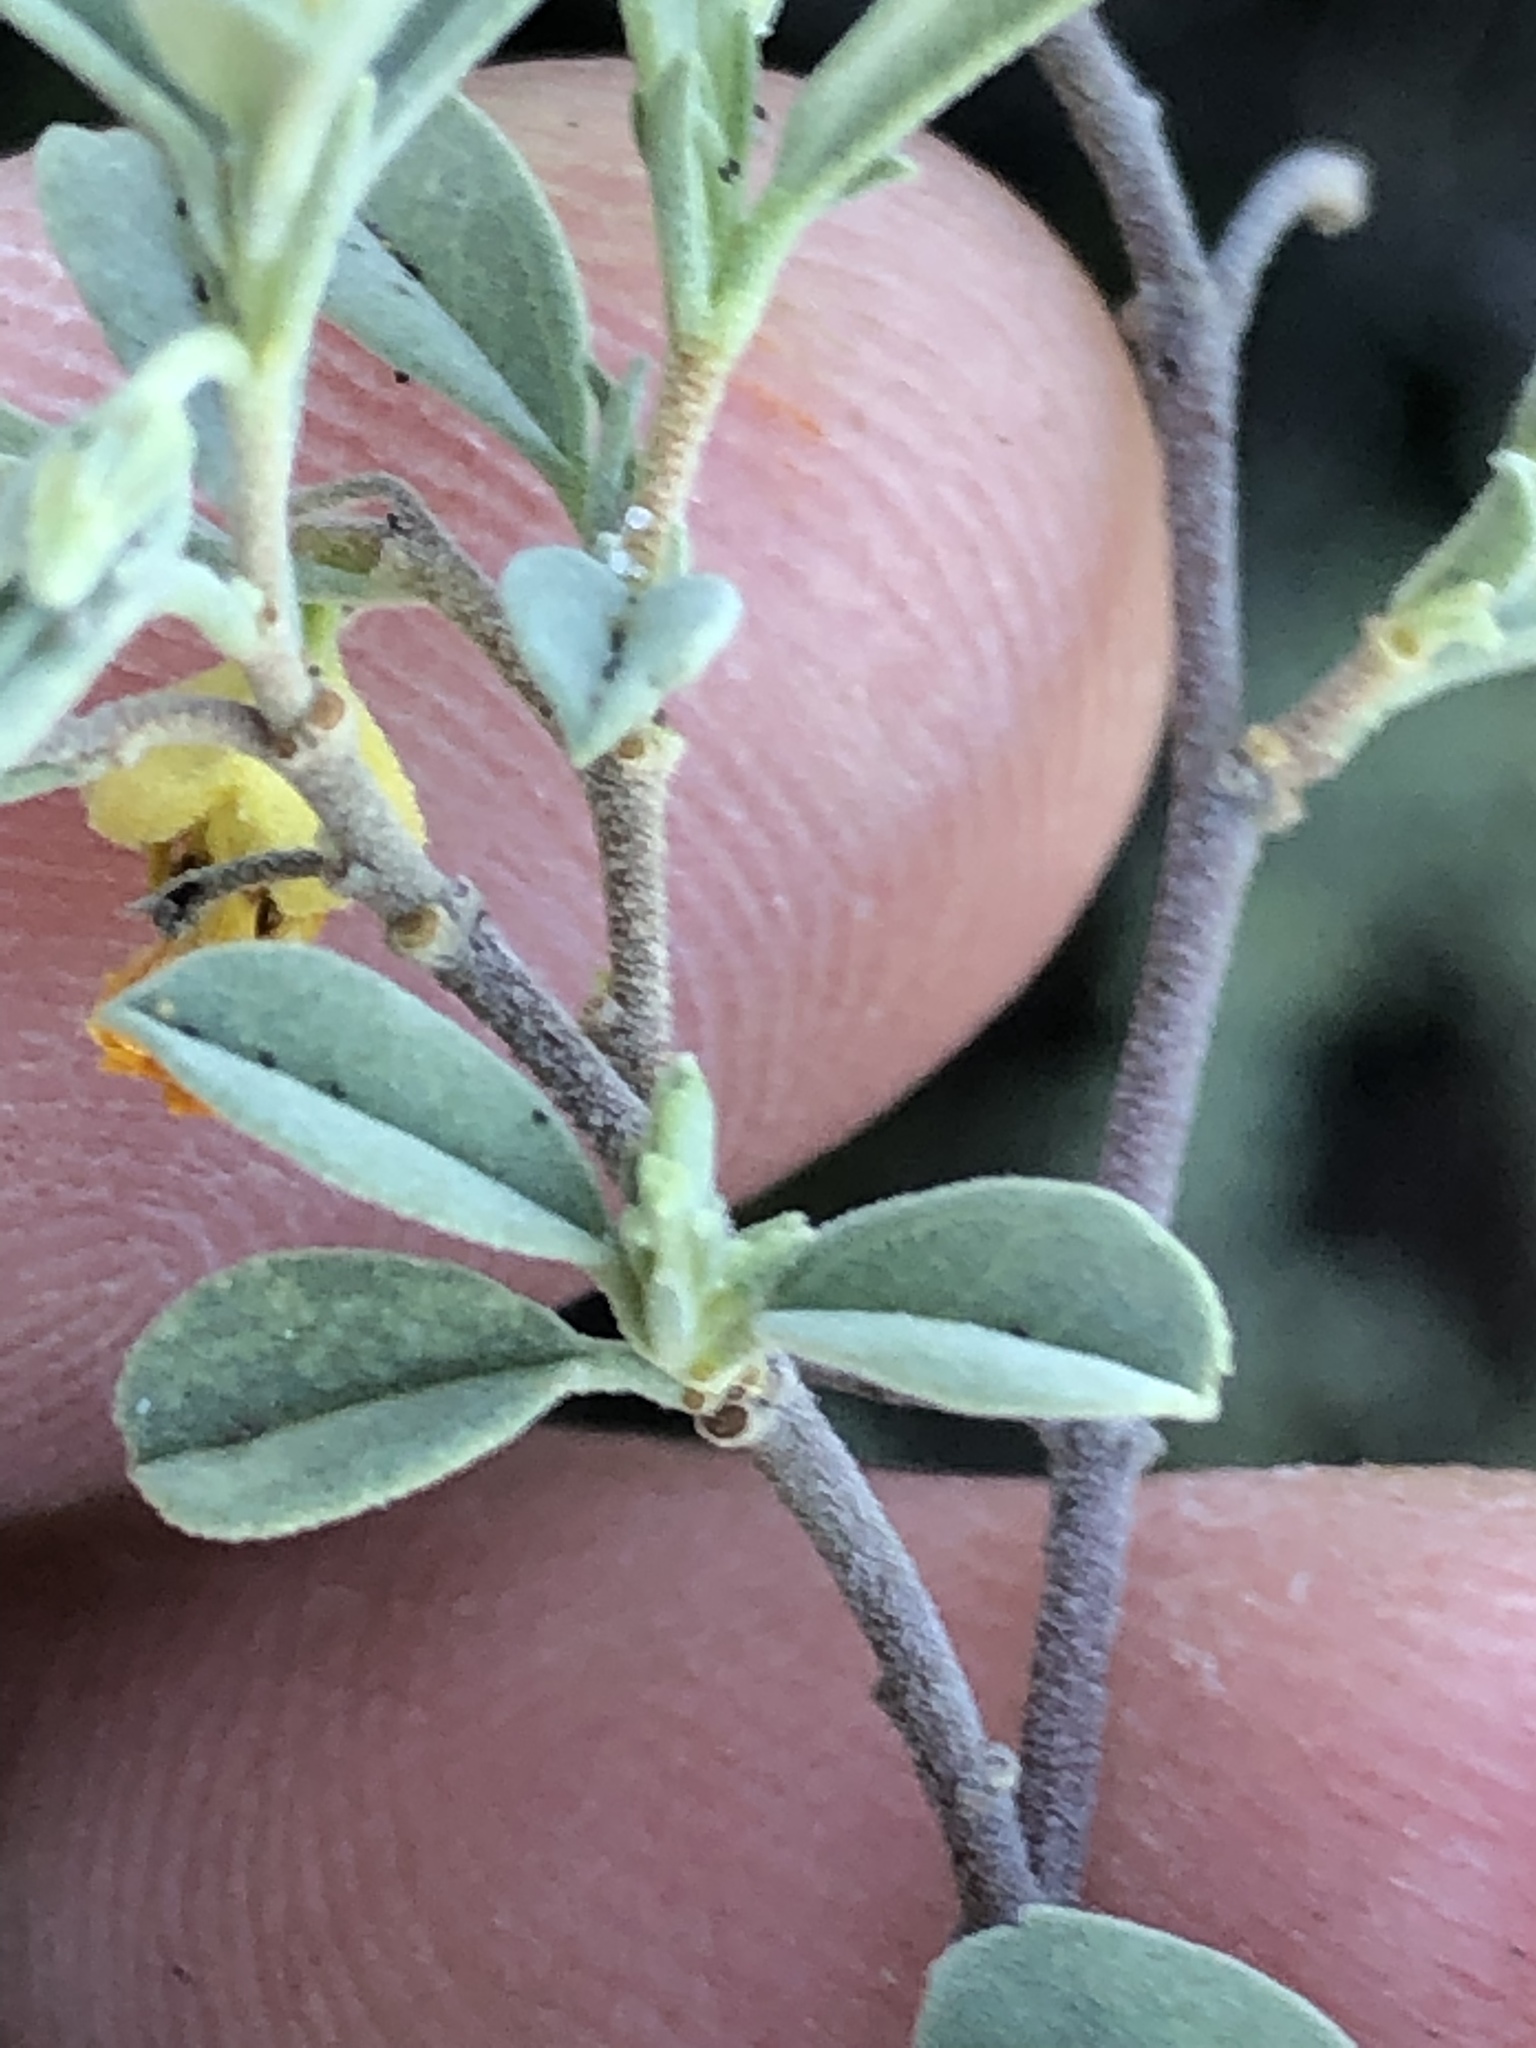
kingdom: Plantae
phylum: Tracheophyta
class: Magnoliopsida
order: Malvales
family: Malvaceae
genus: Hermannia
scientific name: Hermannia lavandulifolia
